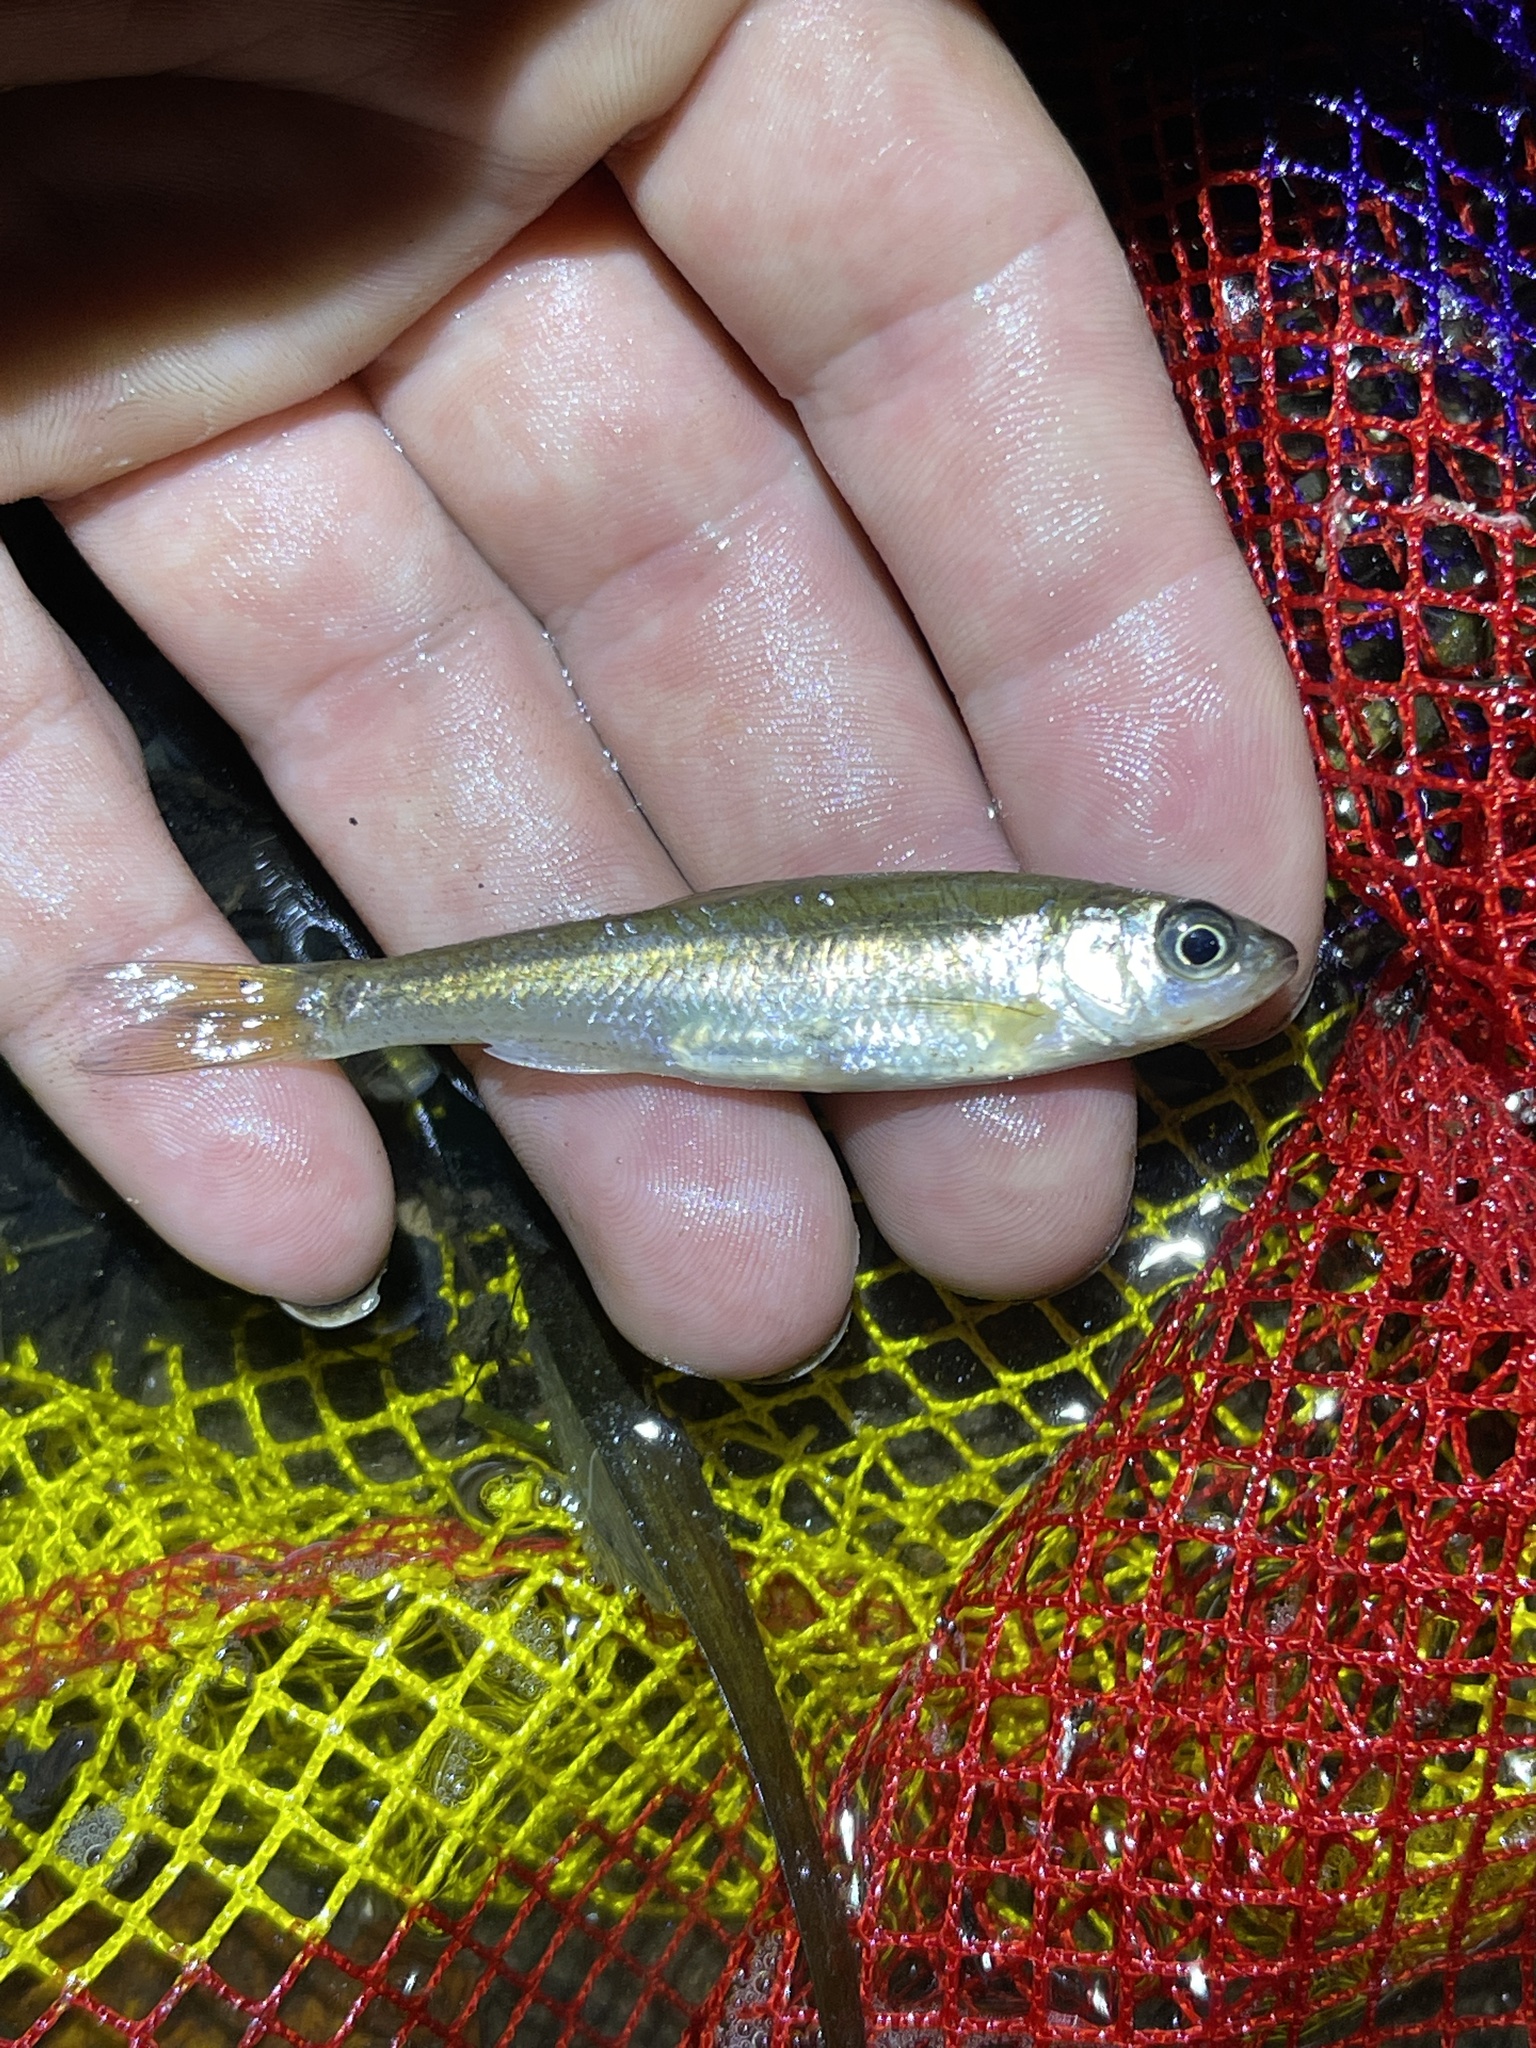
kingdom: Animalia
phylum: Chordata
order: Cypriniformes
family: Cyprinidae
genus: Luxilus
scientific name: Luxilus cornutus
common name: Common shiner
